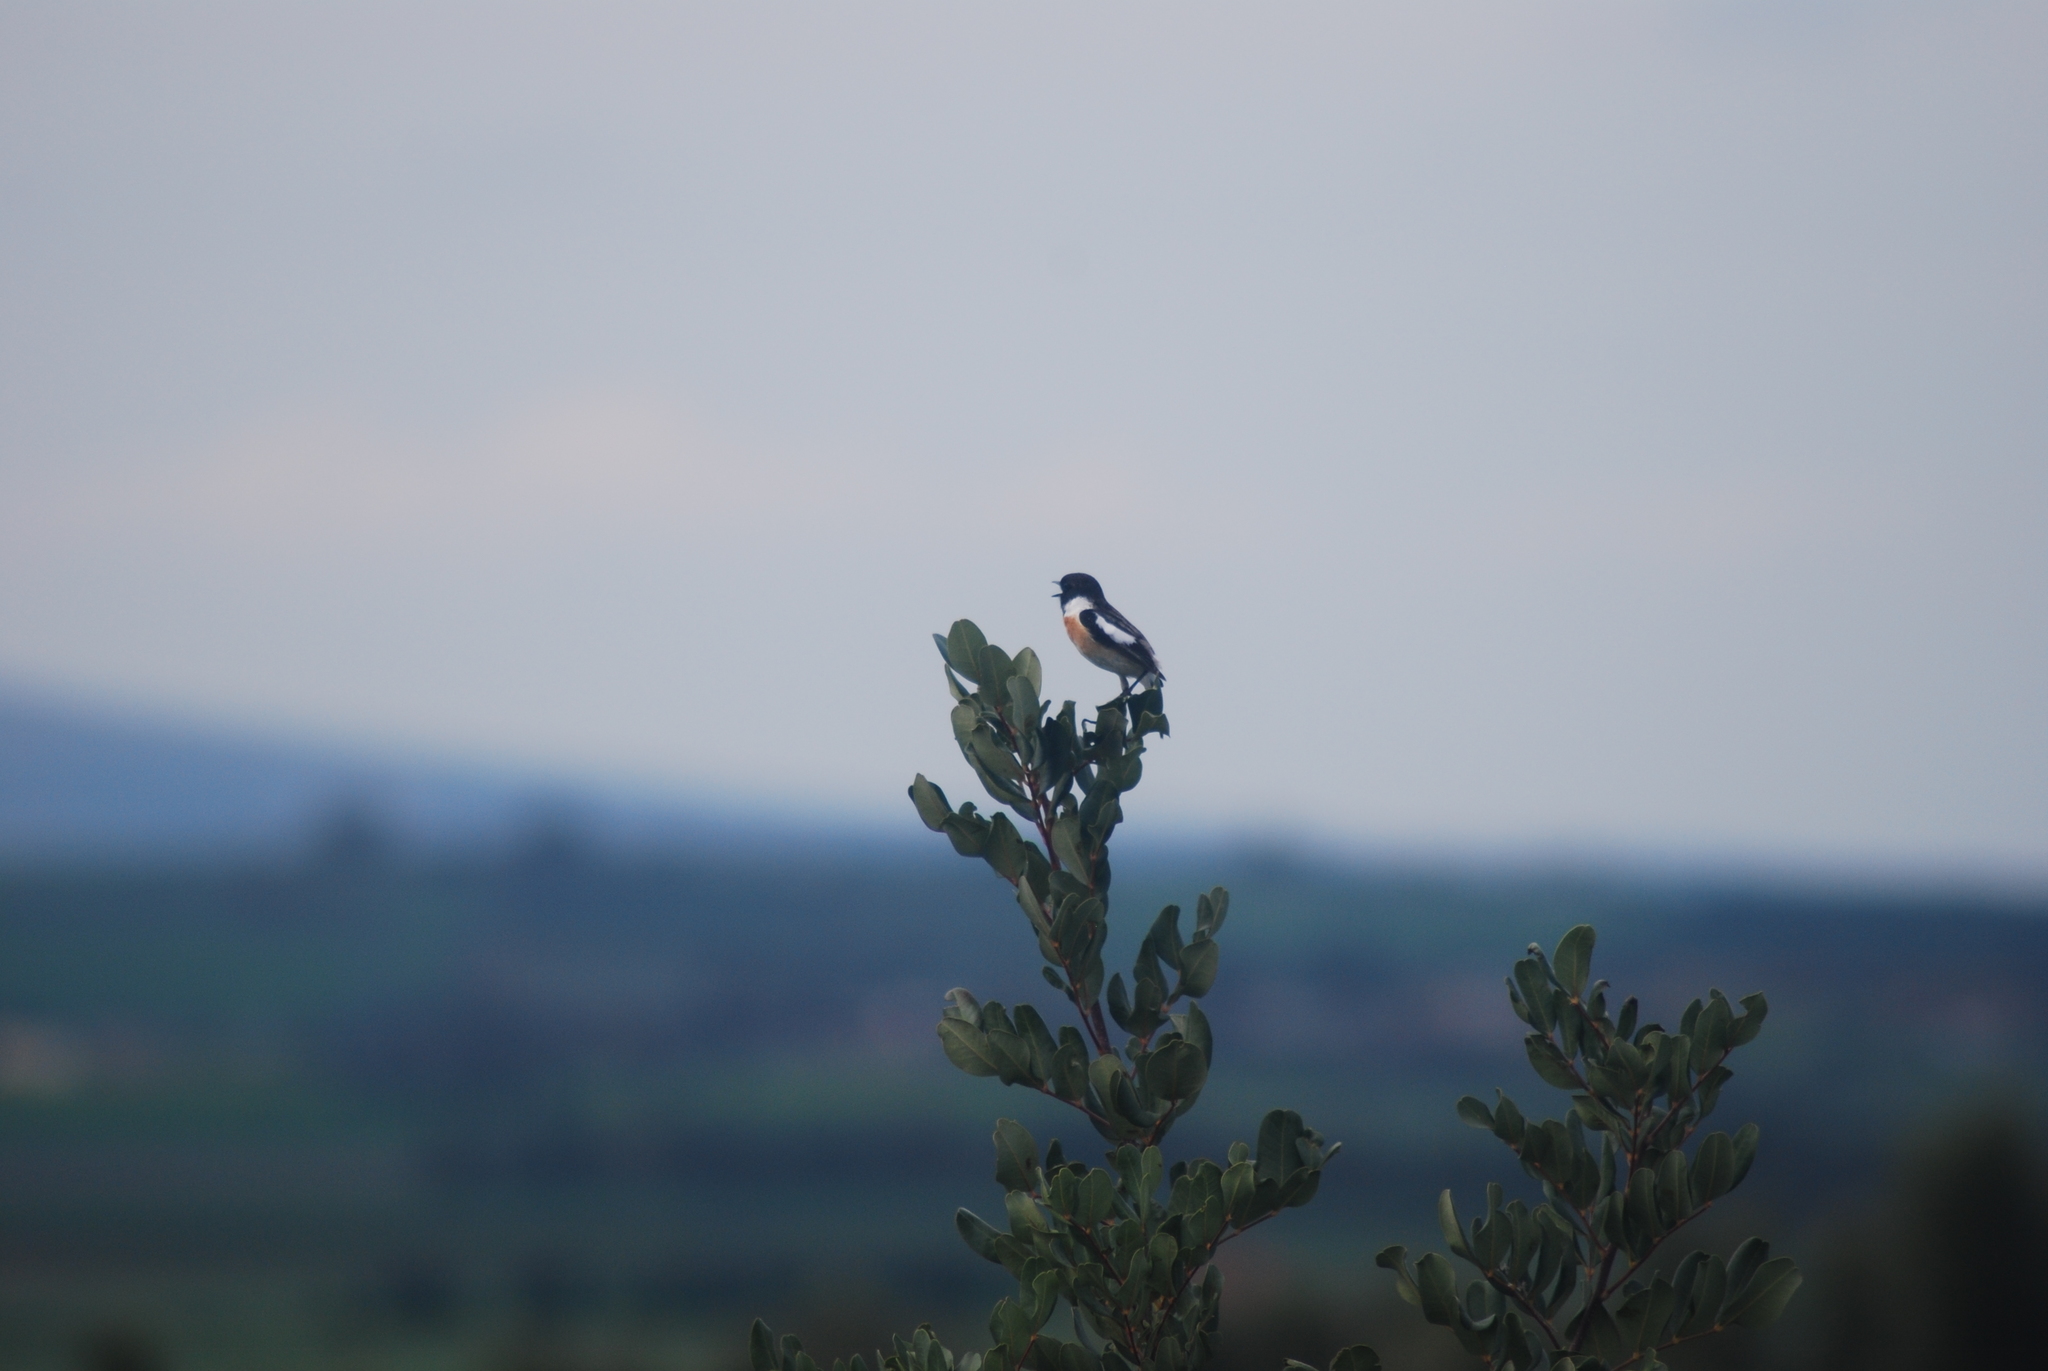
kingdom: Animalia
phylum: Chordata
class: Aves
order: Passeriformes
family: Muscicapidae
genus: Saxicola
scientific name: Saxicola rubicola
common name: European stonechat
